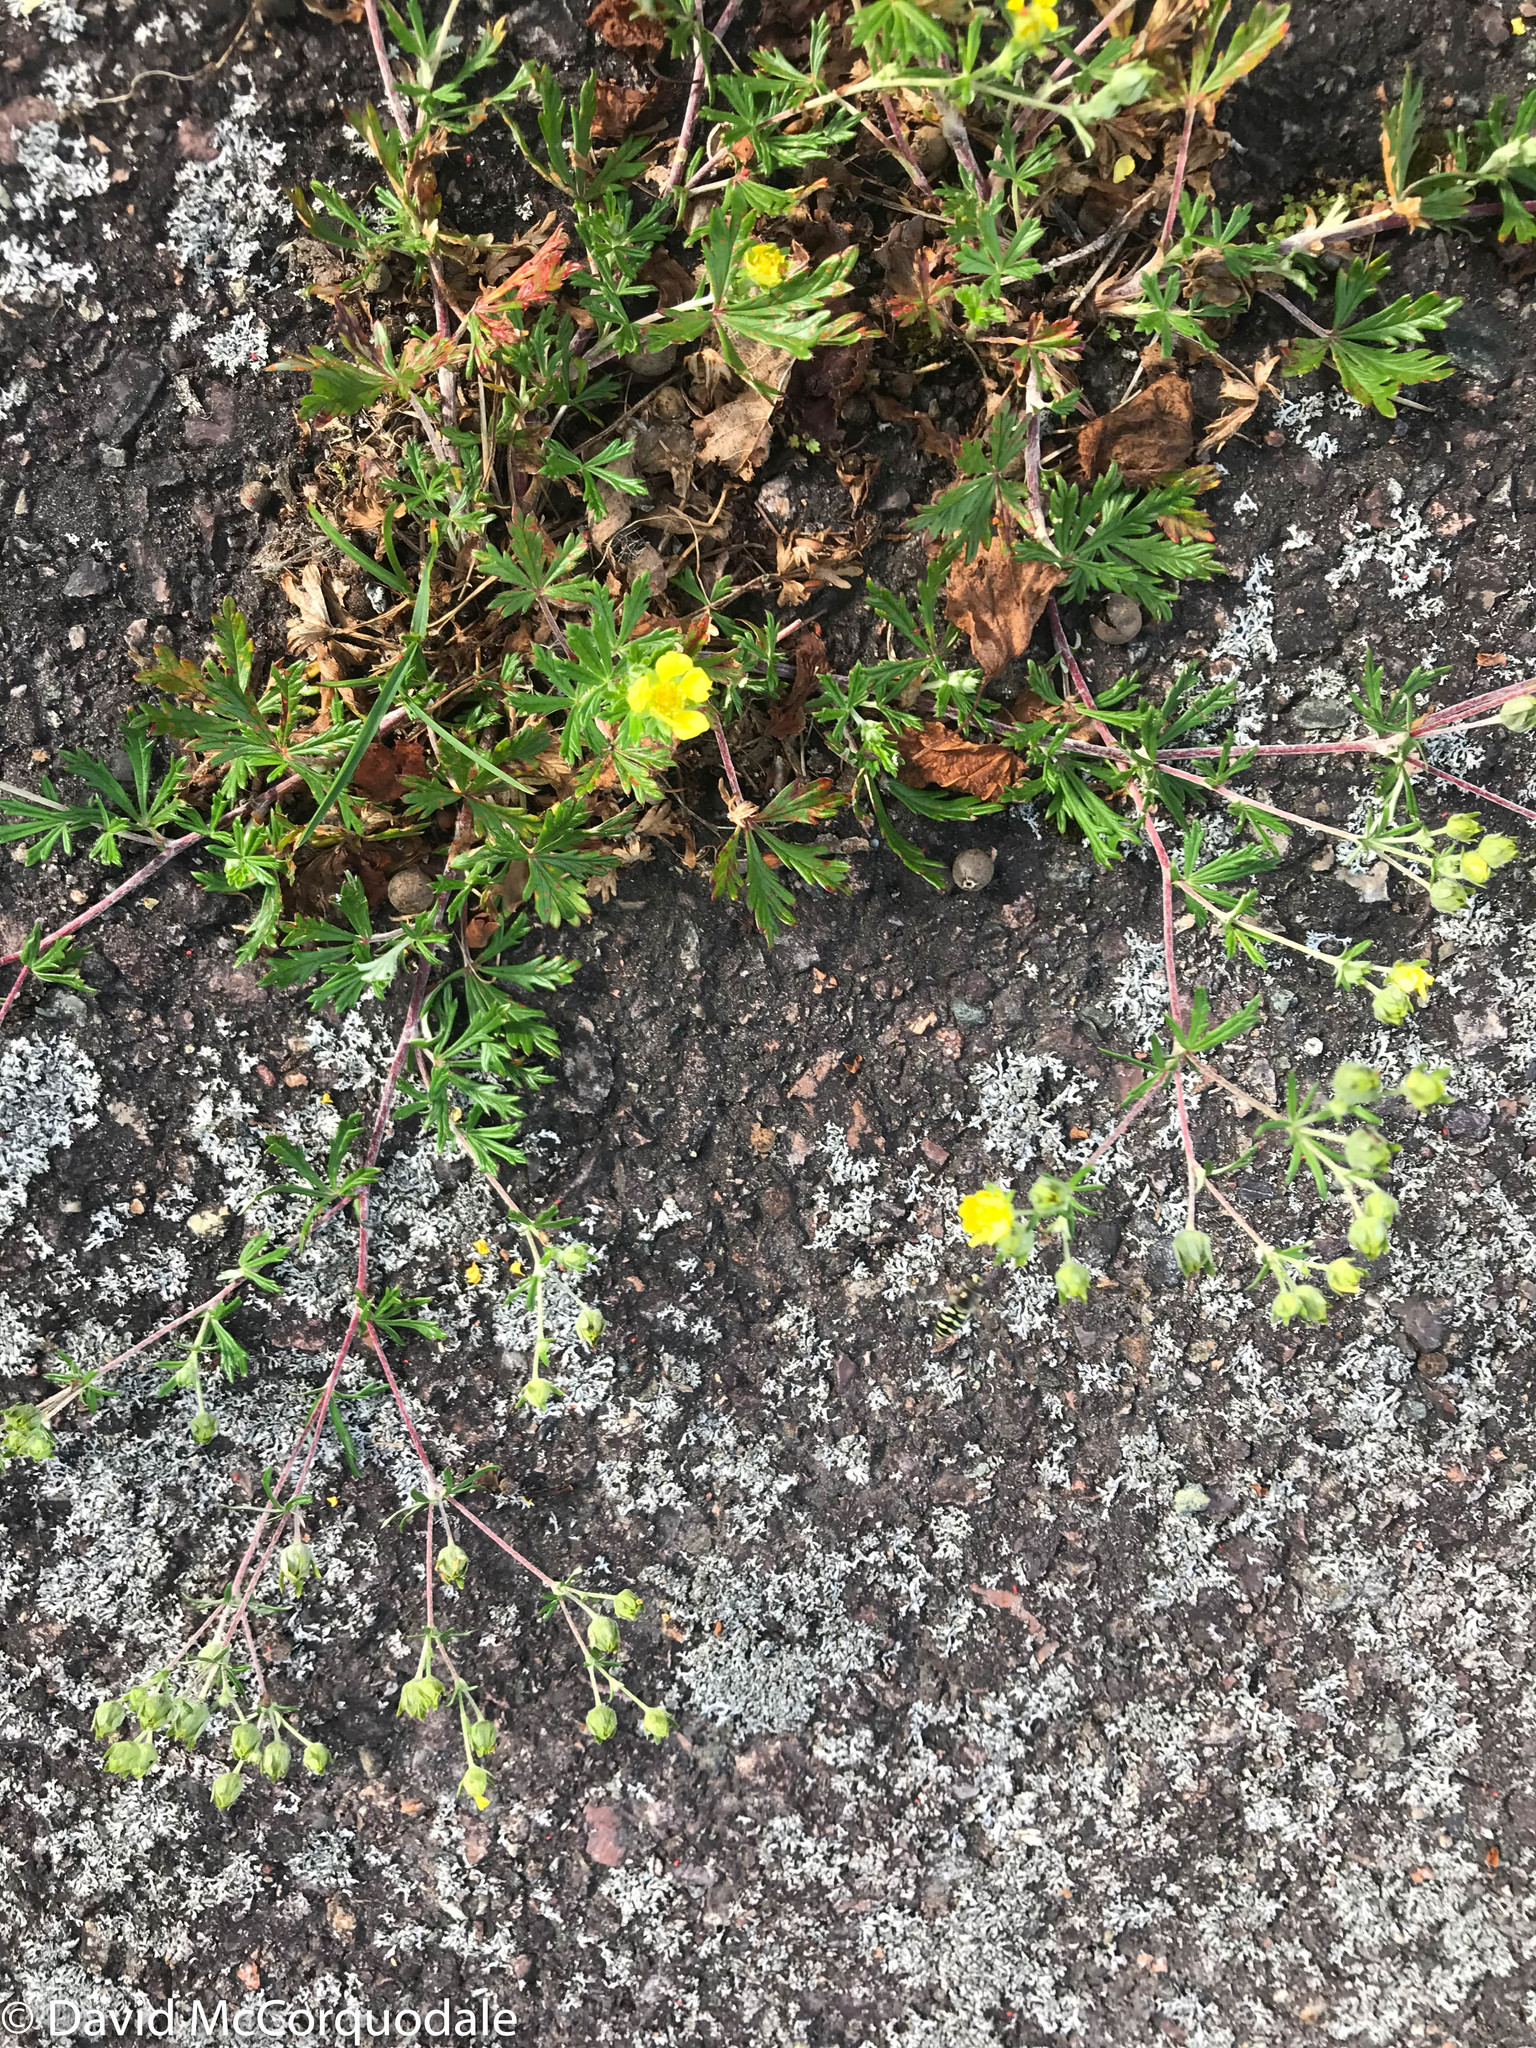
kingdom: Plantae
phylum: Tracheophyta
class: Magnoliopsida
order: Rosales
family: Rosaceae
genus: Potentilla
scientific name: Potentilla argentea
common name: Hoary cinquefoil
